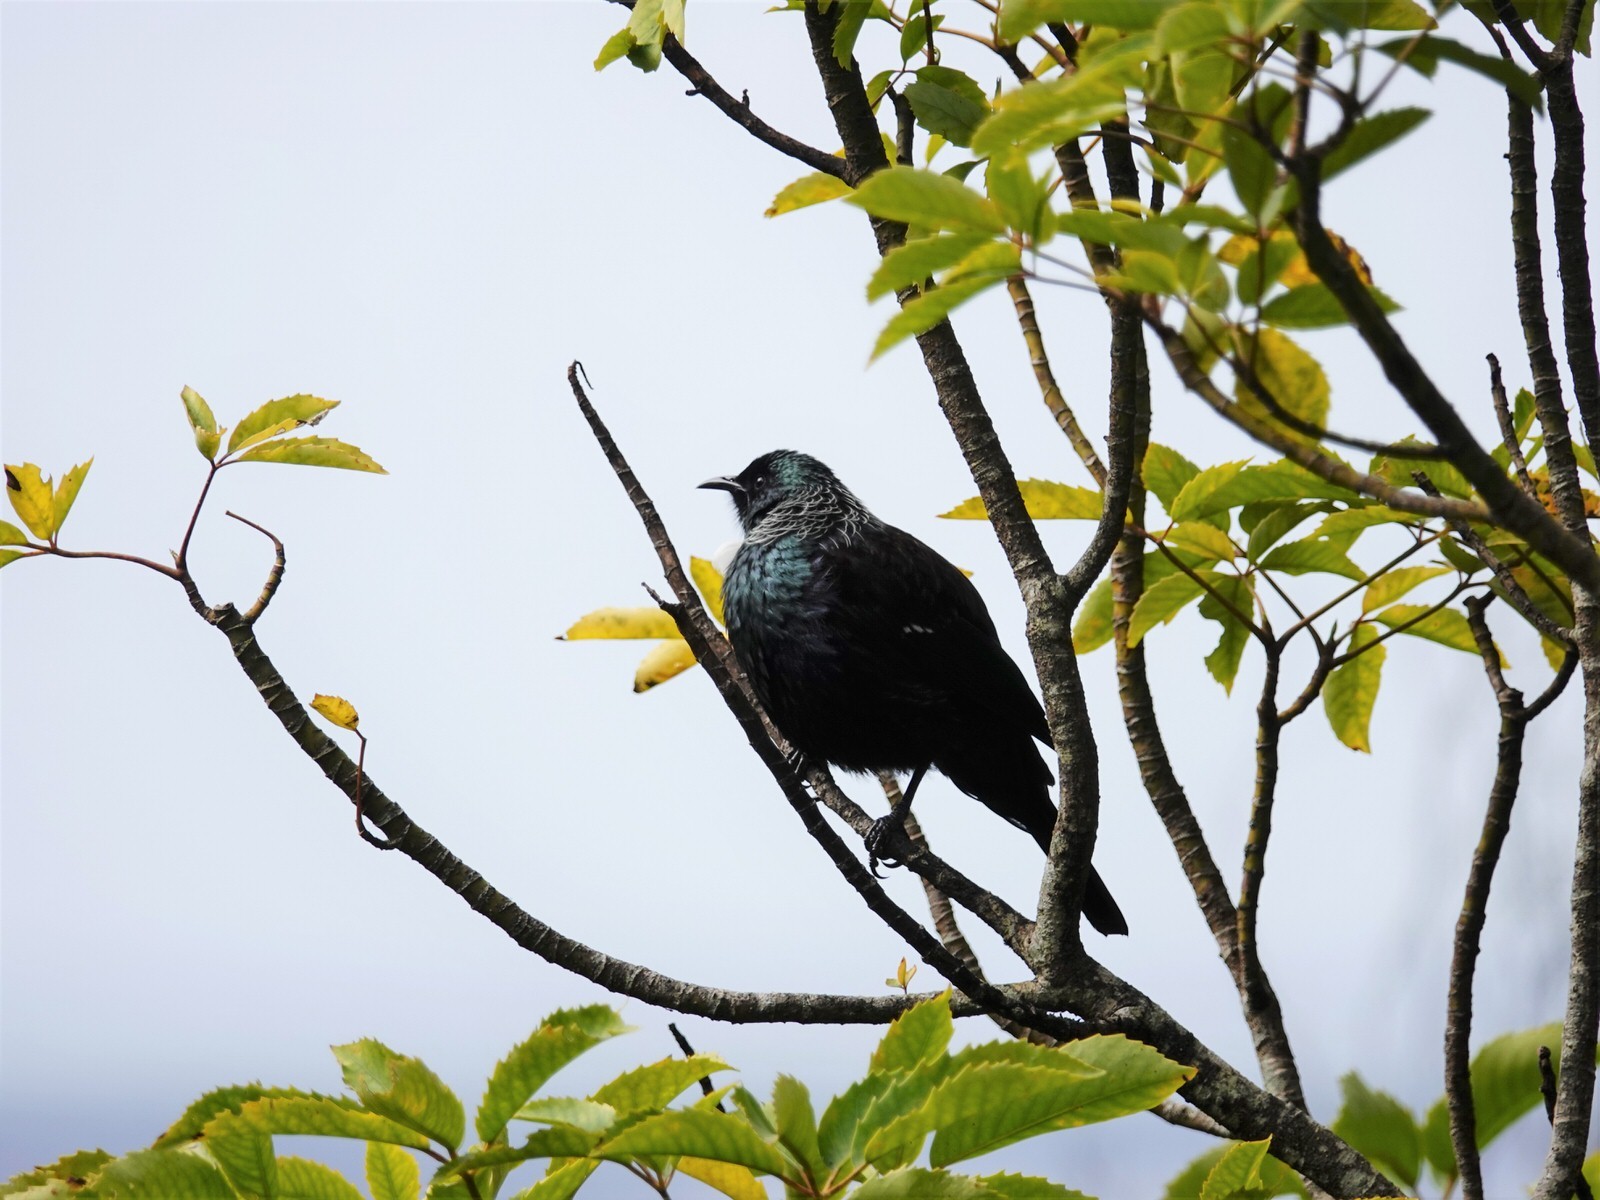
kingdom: Animalia
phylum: Chordata
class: Aves
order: Passeriformes
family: Meliphagidae
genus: Prosthemadera
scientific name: Prosthemadera novaeseelandiae
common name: Tui
